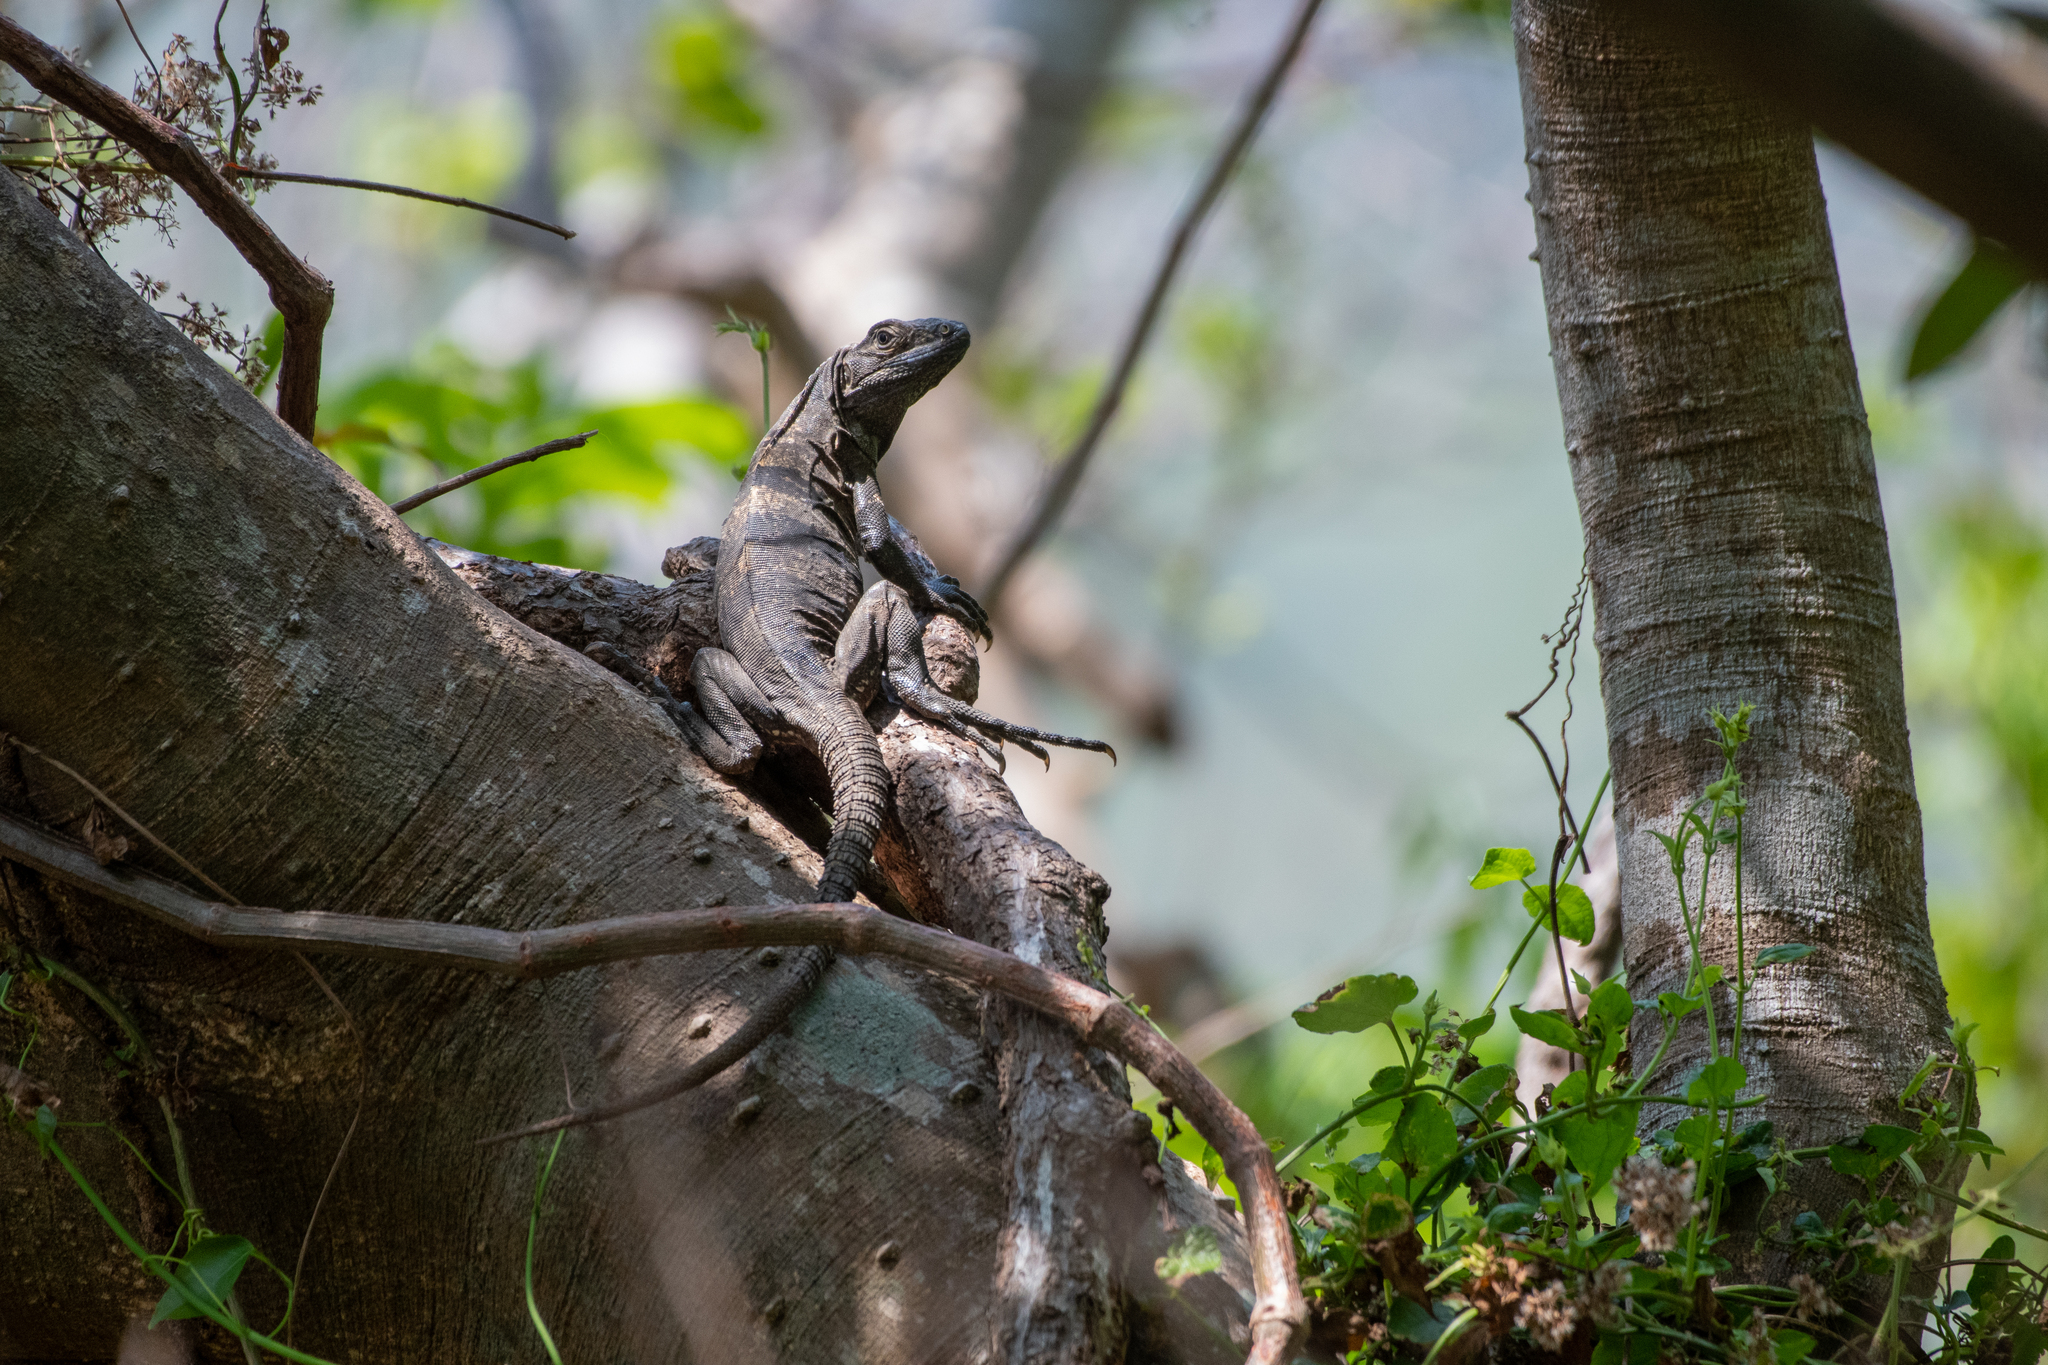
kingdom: Animalia
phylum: Chordata
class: Squamata
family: Iguanidae
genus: Ctenosaura
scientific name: Ctenosaura similis
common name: Black spiny-tailed iguana
